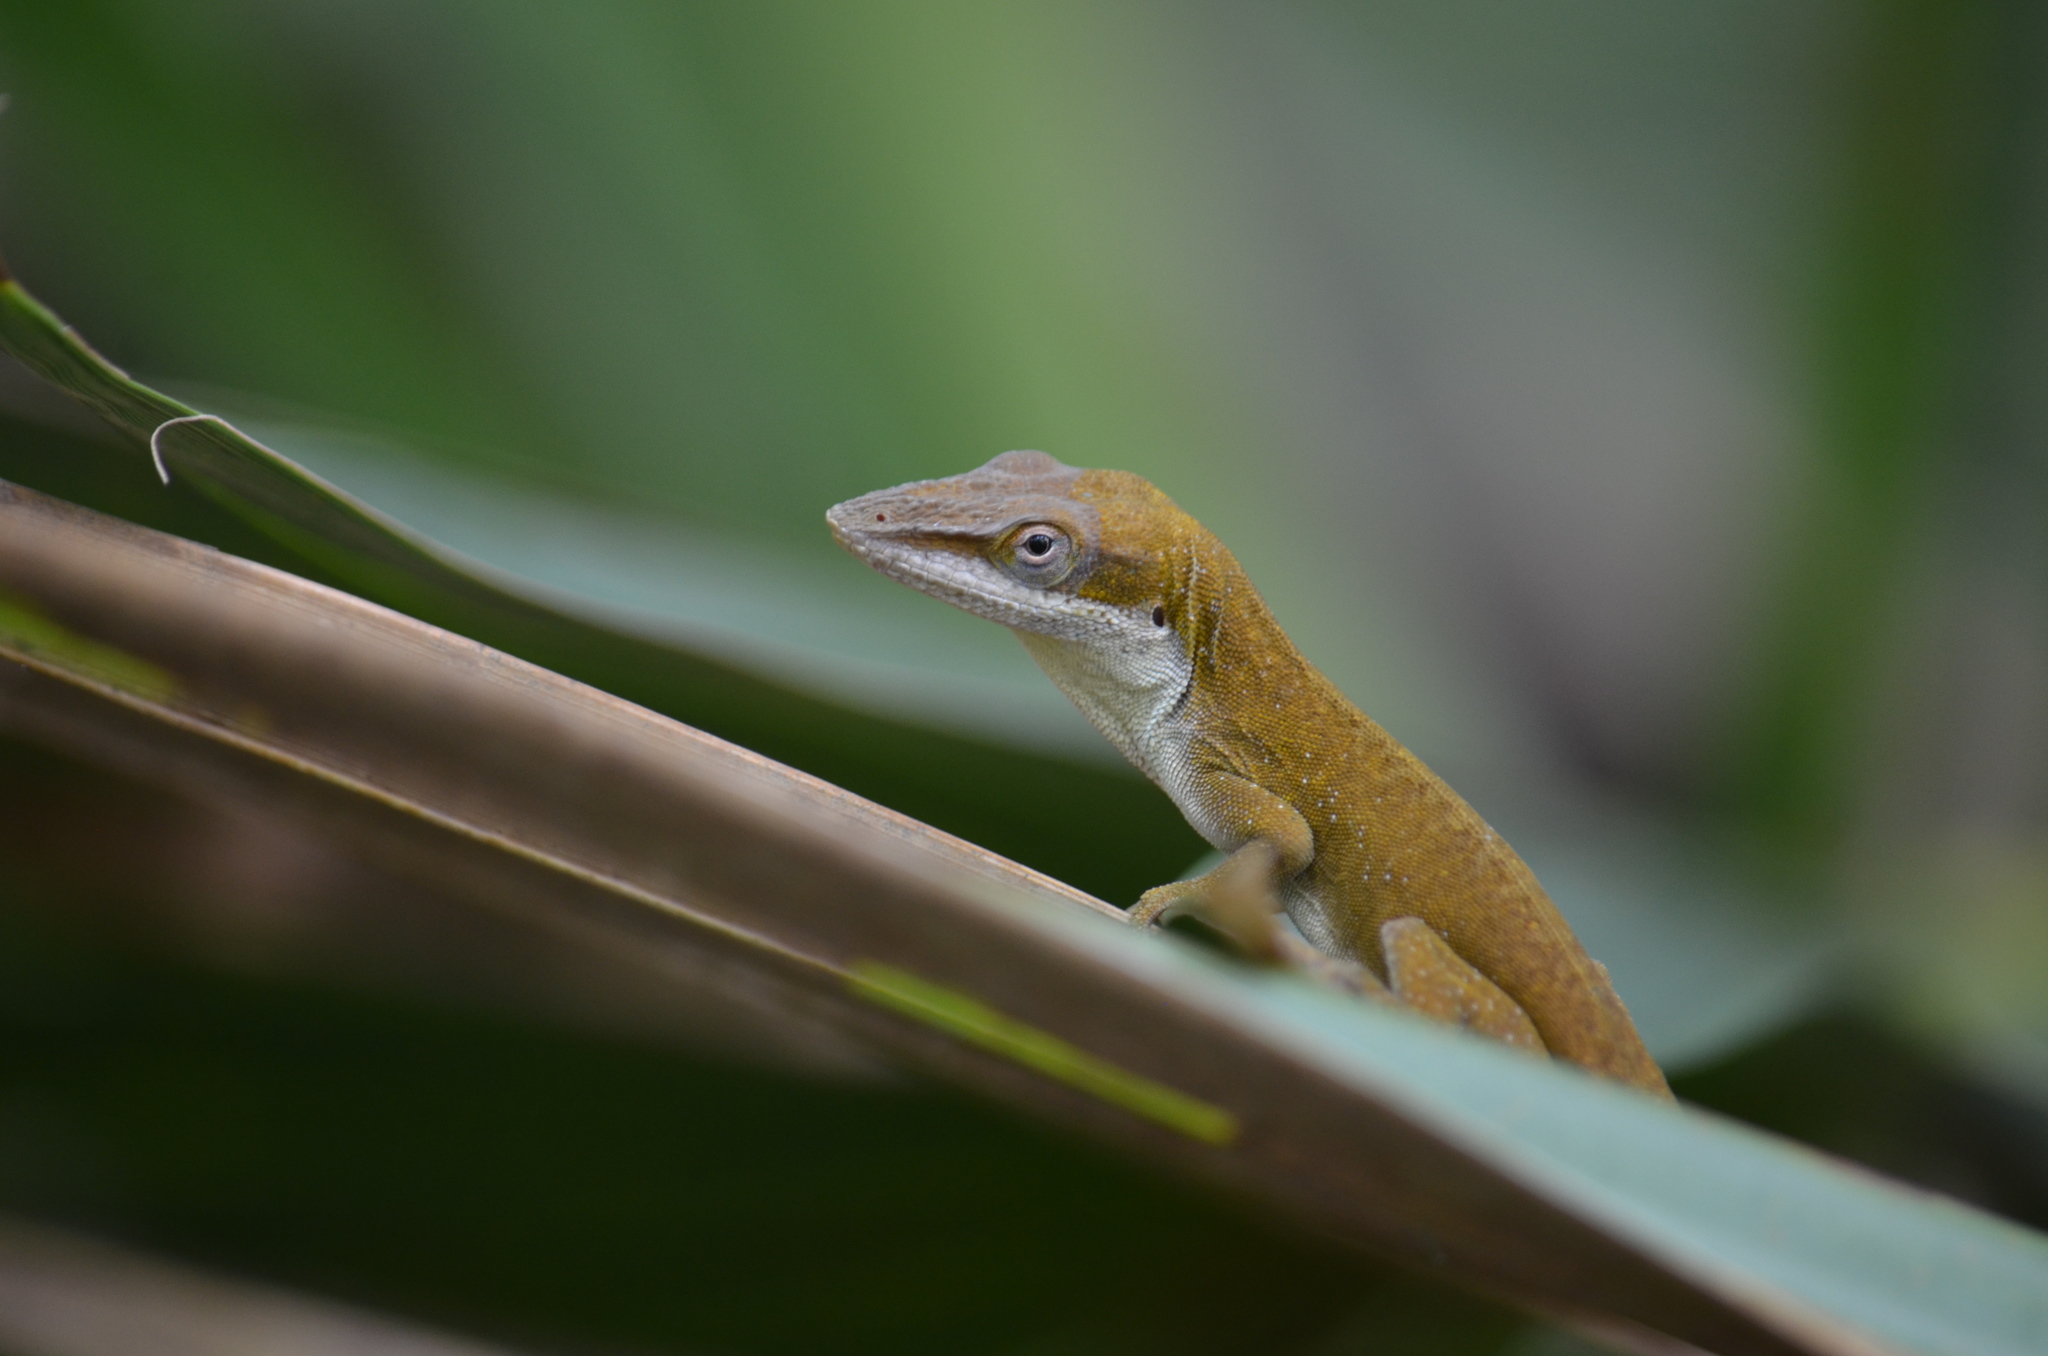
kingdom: Animalia
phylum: Chordata
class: Squamata
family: Dactyloidae
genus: Anolis
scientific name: Anolis carolinensis
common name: Green anole
